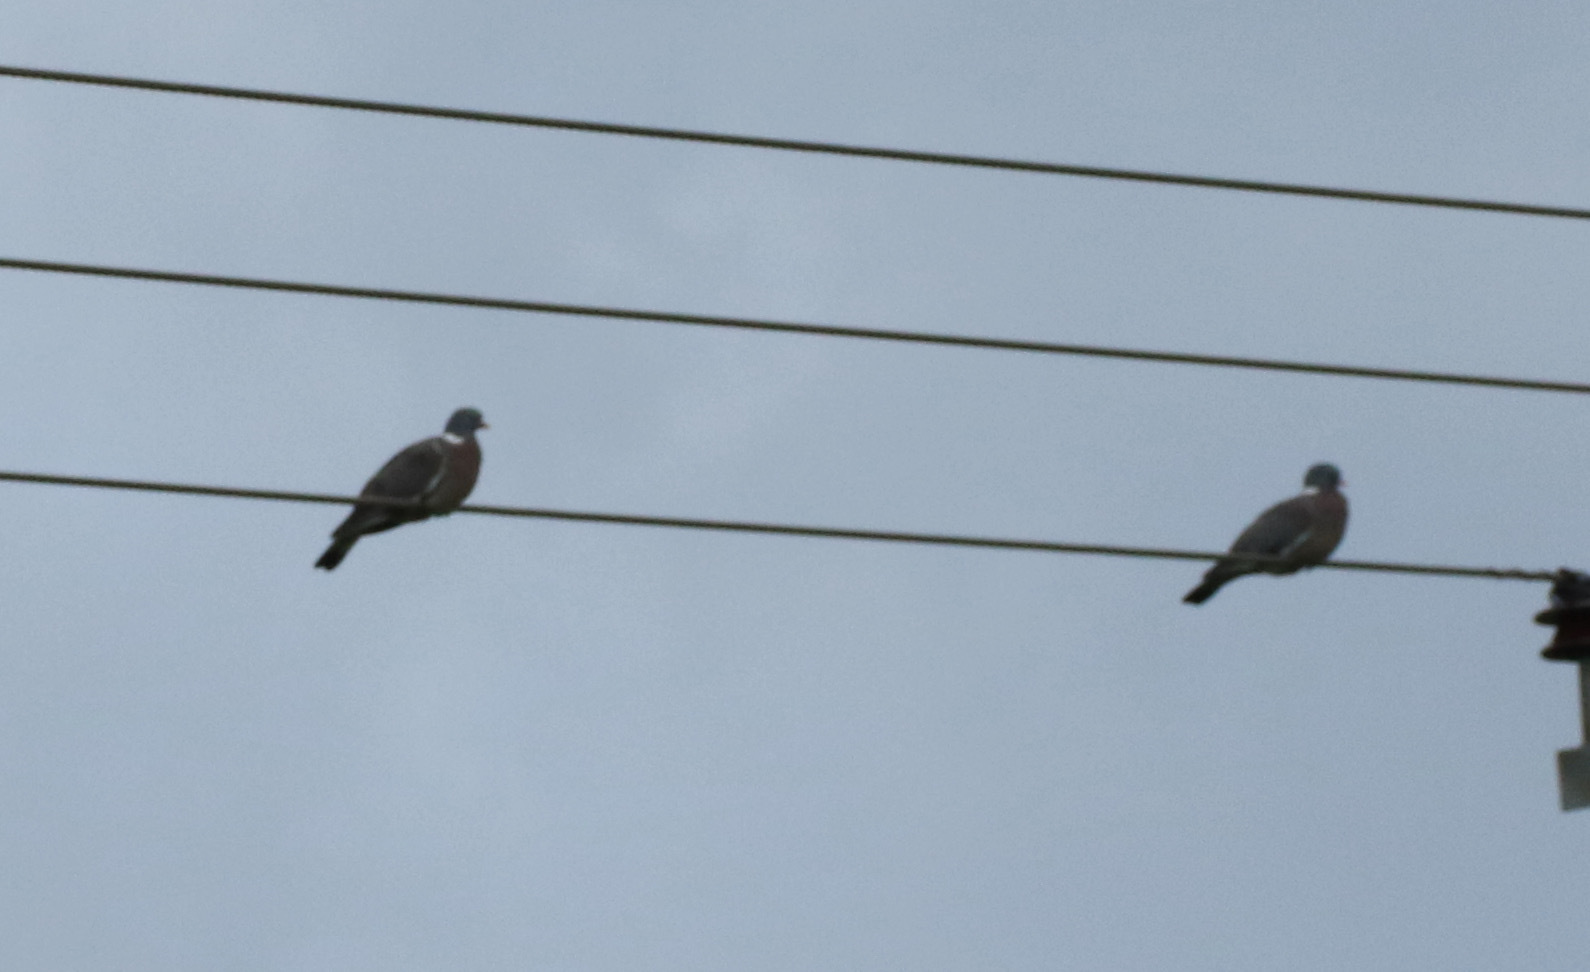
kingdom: Animalia
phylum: Chordata
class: Aves
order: Columbiformes
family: Columbidae
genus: Columba
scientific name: Columba palumbus
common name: Common wood pigeon
